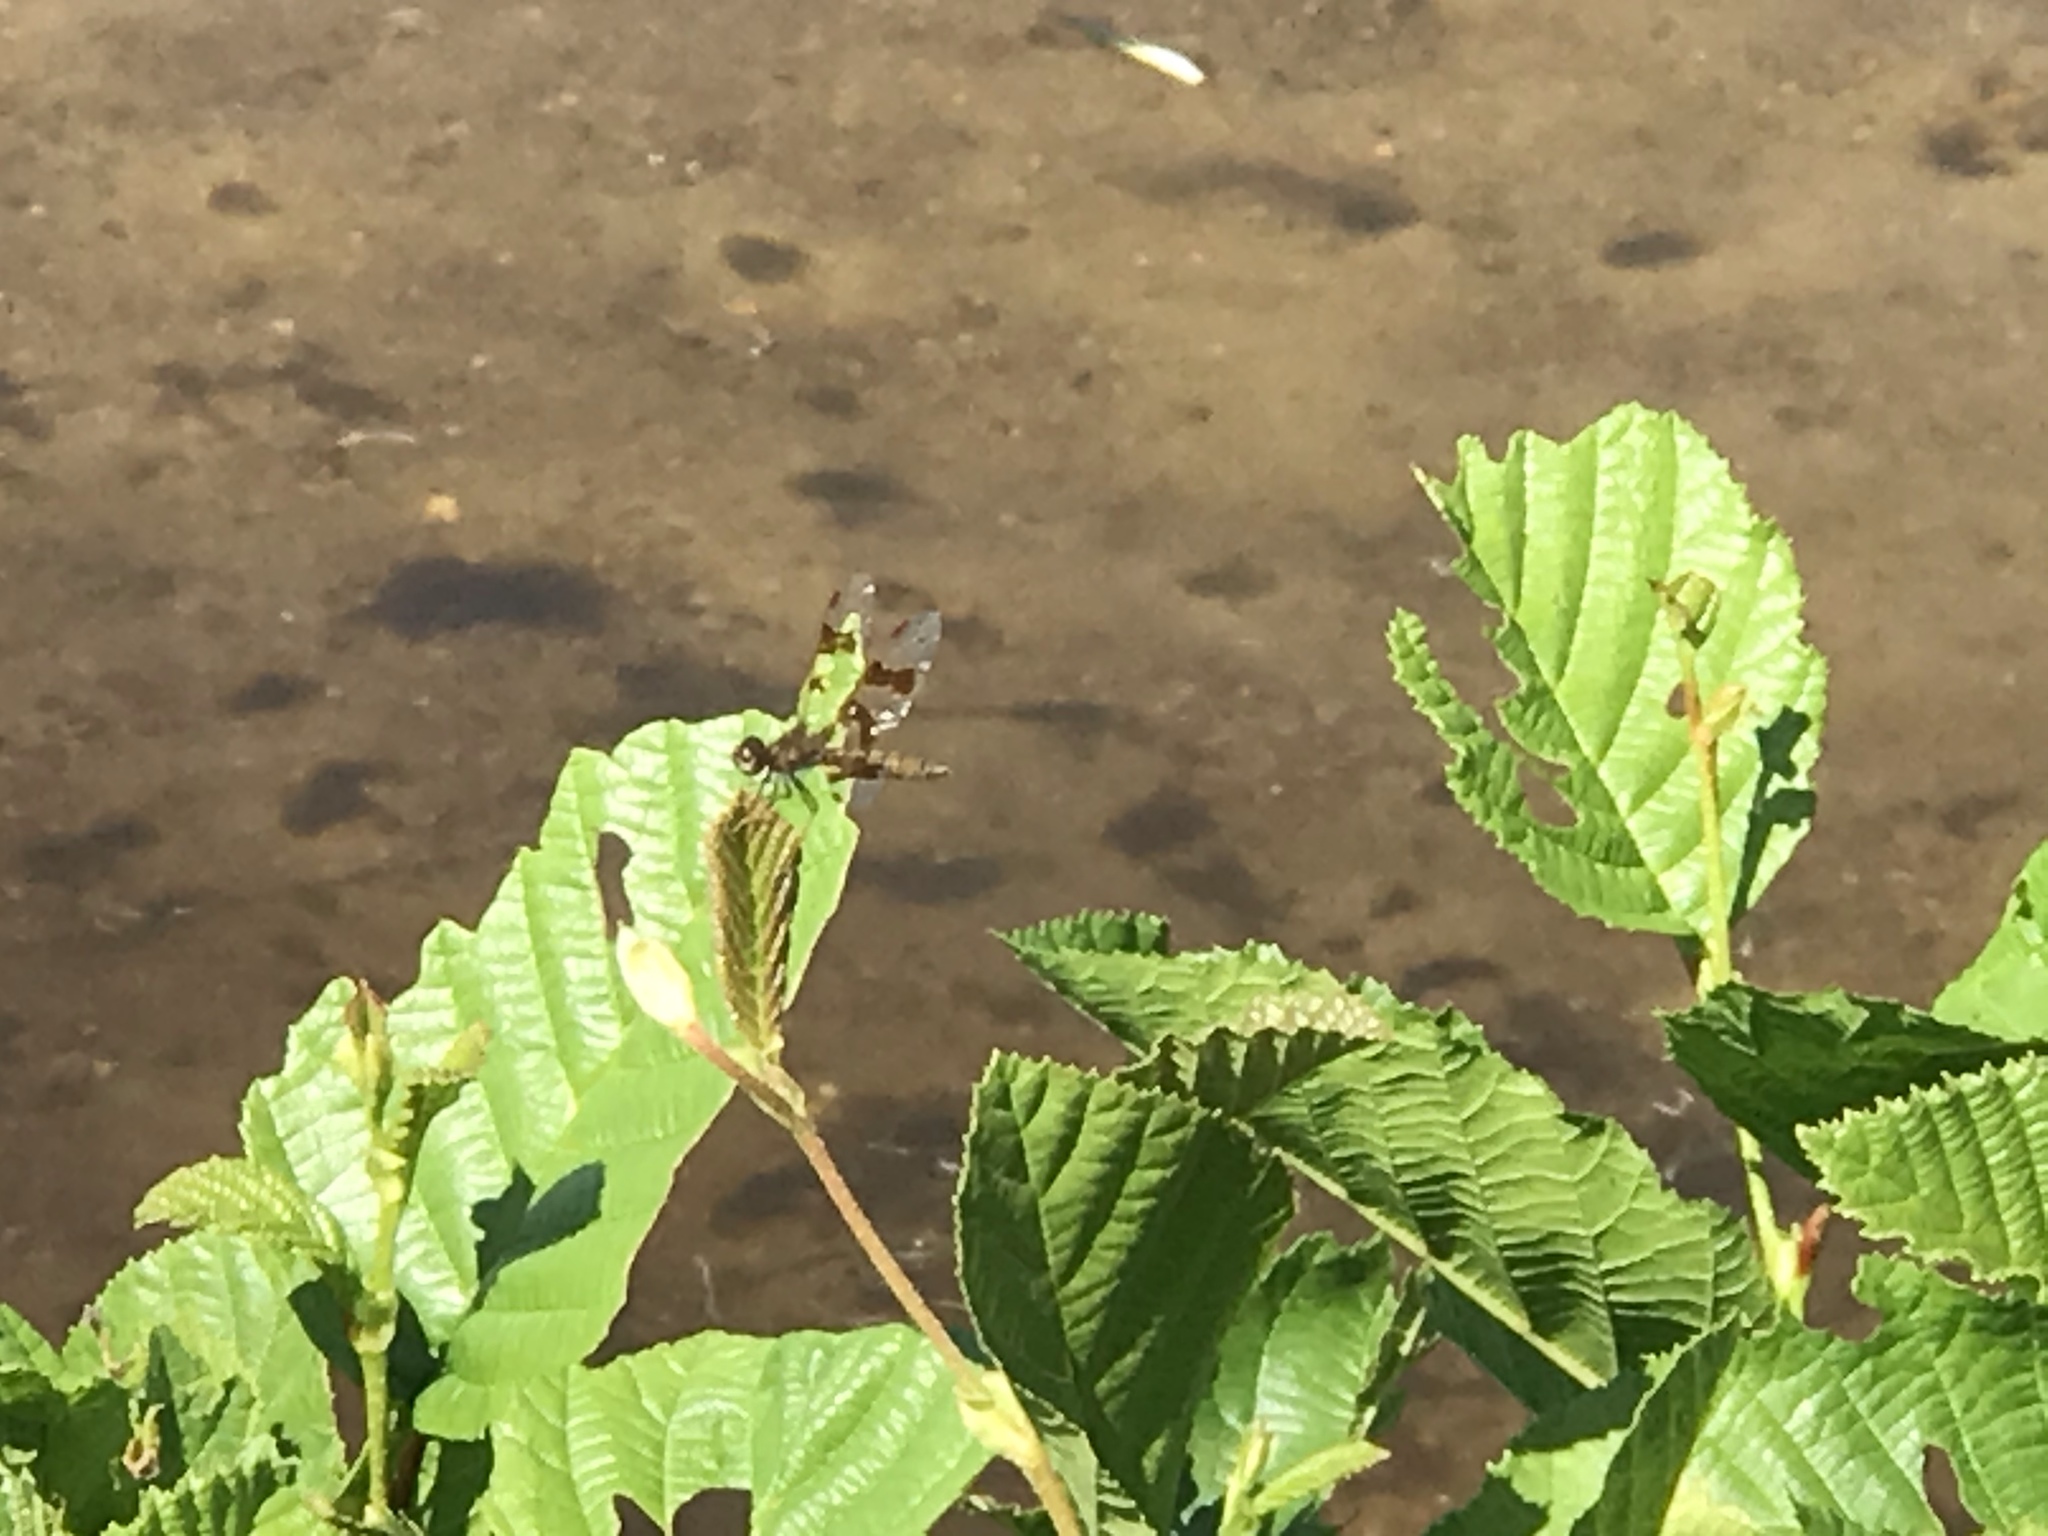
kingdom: Animalia
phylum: Arthropoda
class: Insecta
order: Odonata
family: Libellulidae
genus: Perithemis
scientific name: Perithemis tenera
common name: Eastern amberwing
